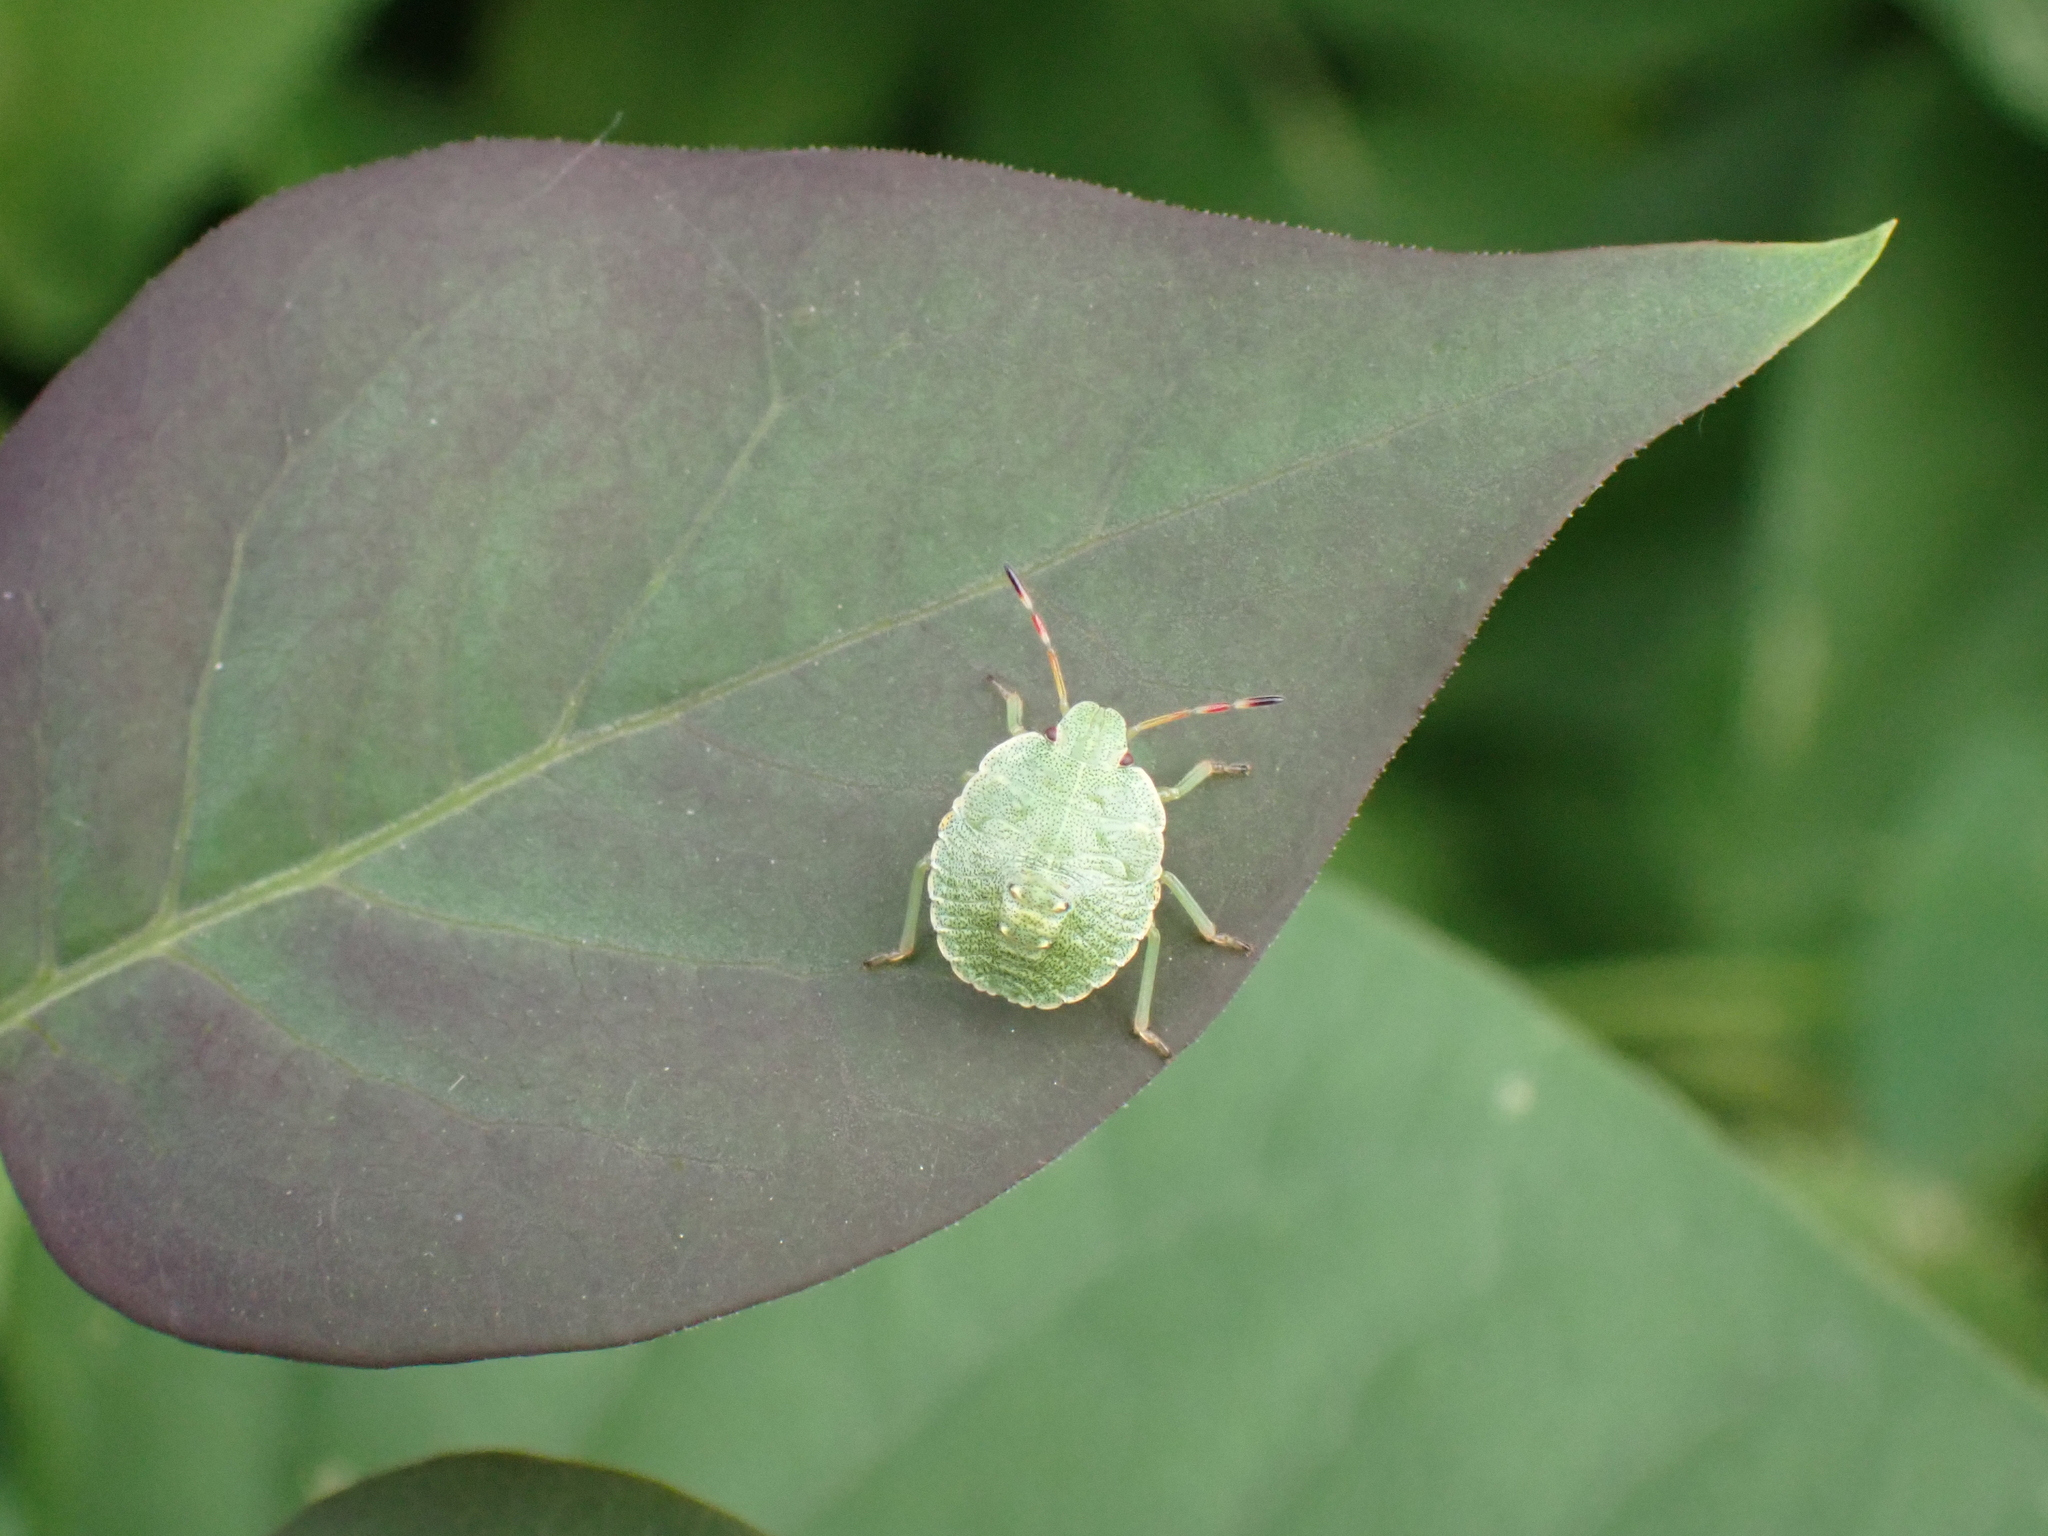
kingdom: Animalia
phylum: Arthropoda
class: Insecta
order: Hemiptera
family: Pentatomidae
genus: Palomena
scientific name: Palomena prasina
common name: Green shieldbug
